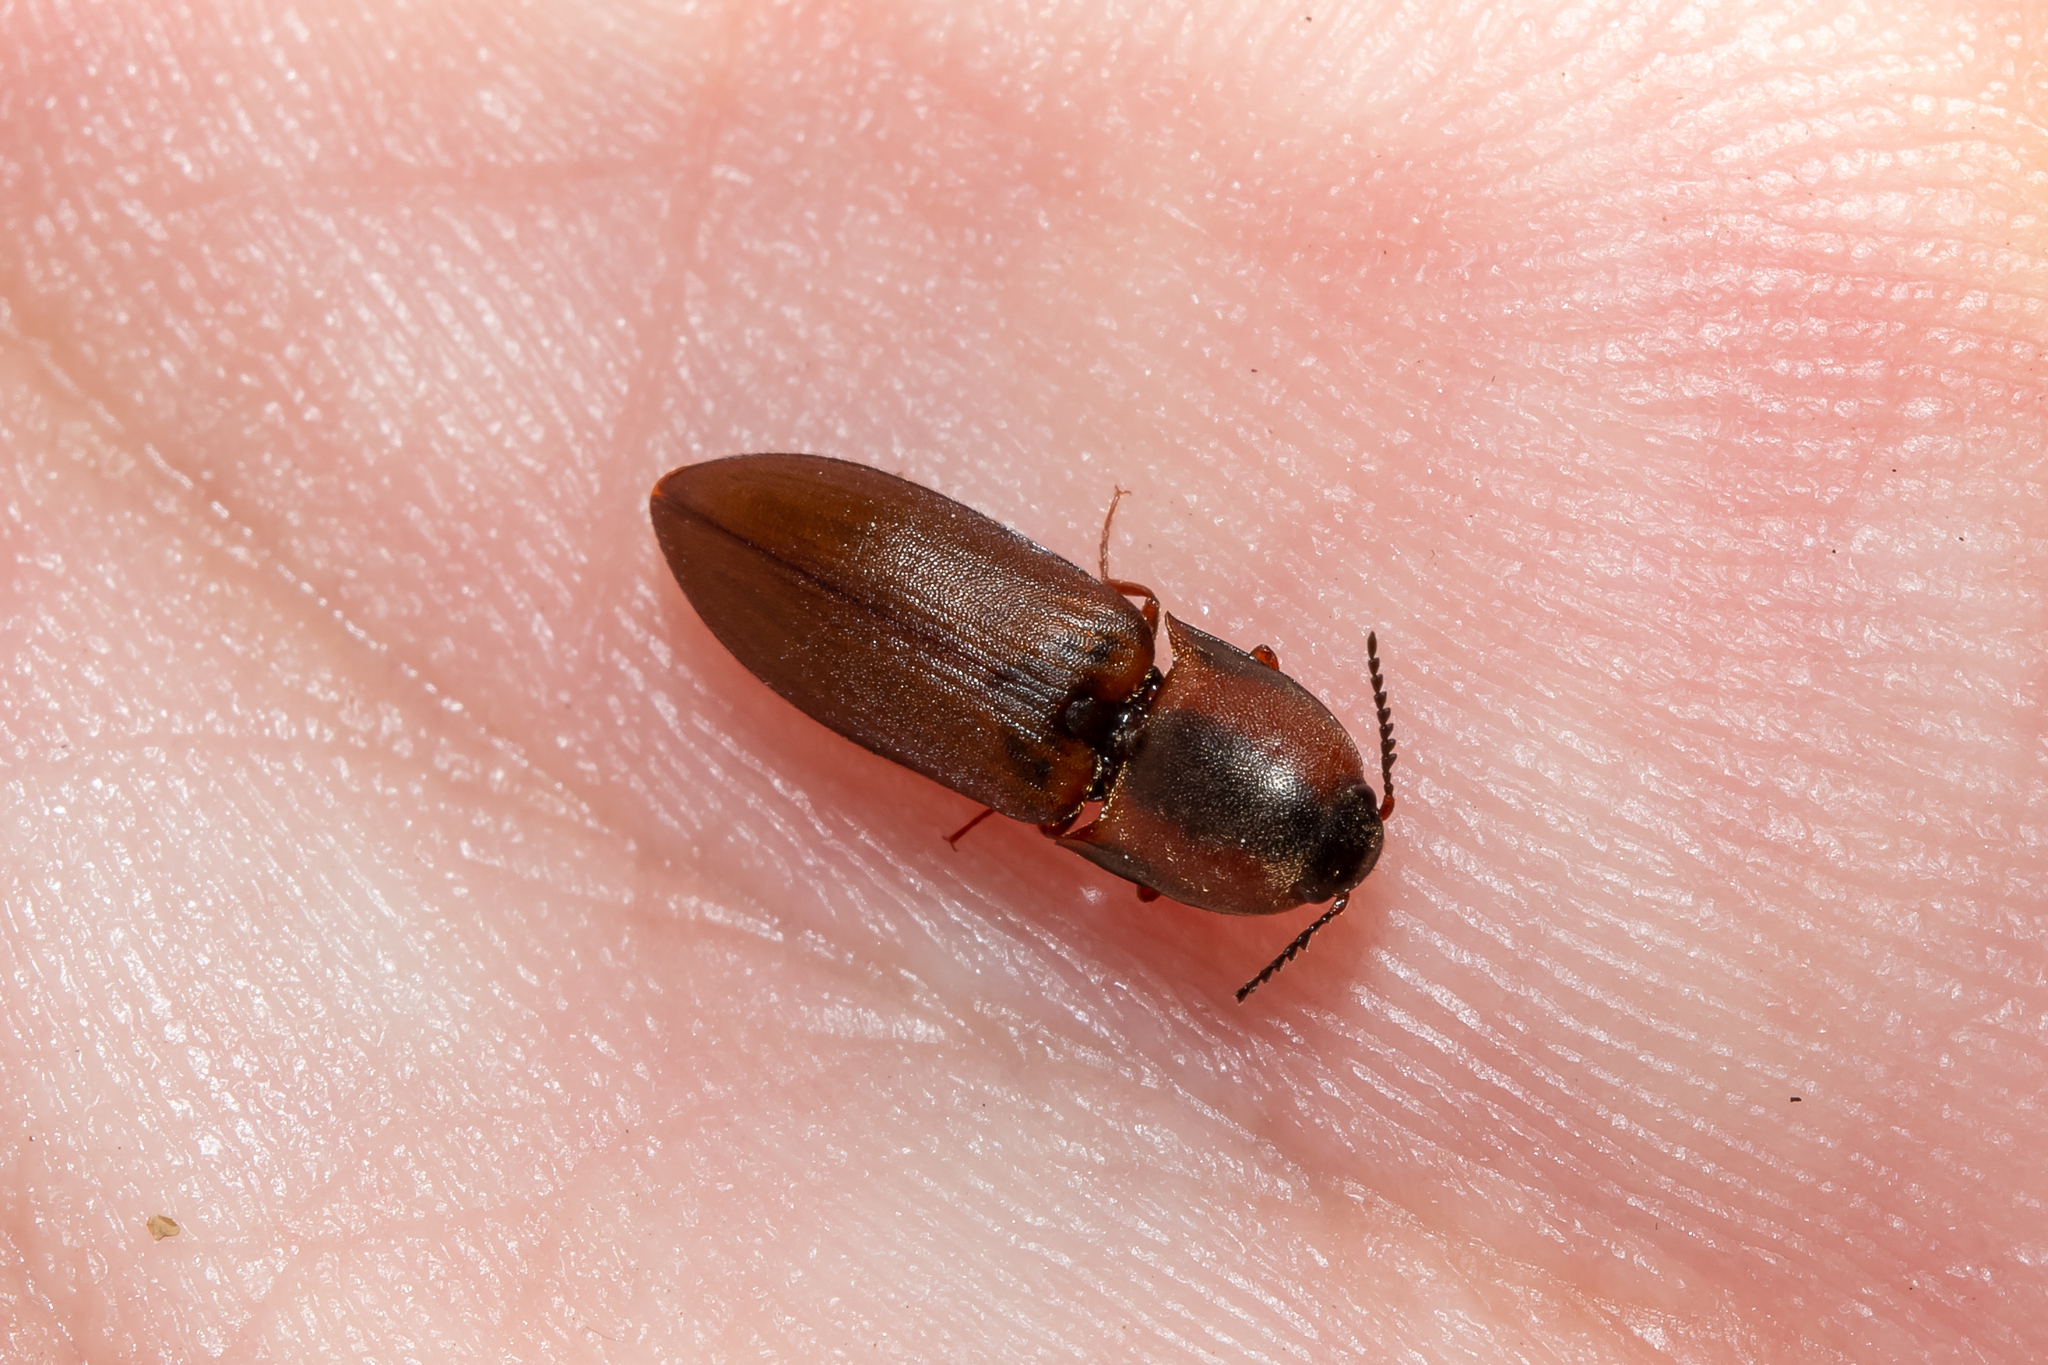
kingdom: Animalia
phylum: Arthropoda
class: Insecta
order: Coleoptera
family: Elateridae
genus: Sericus
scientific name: Sericus brunneus
